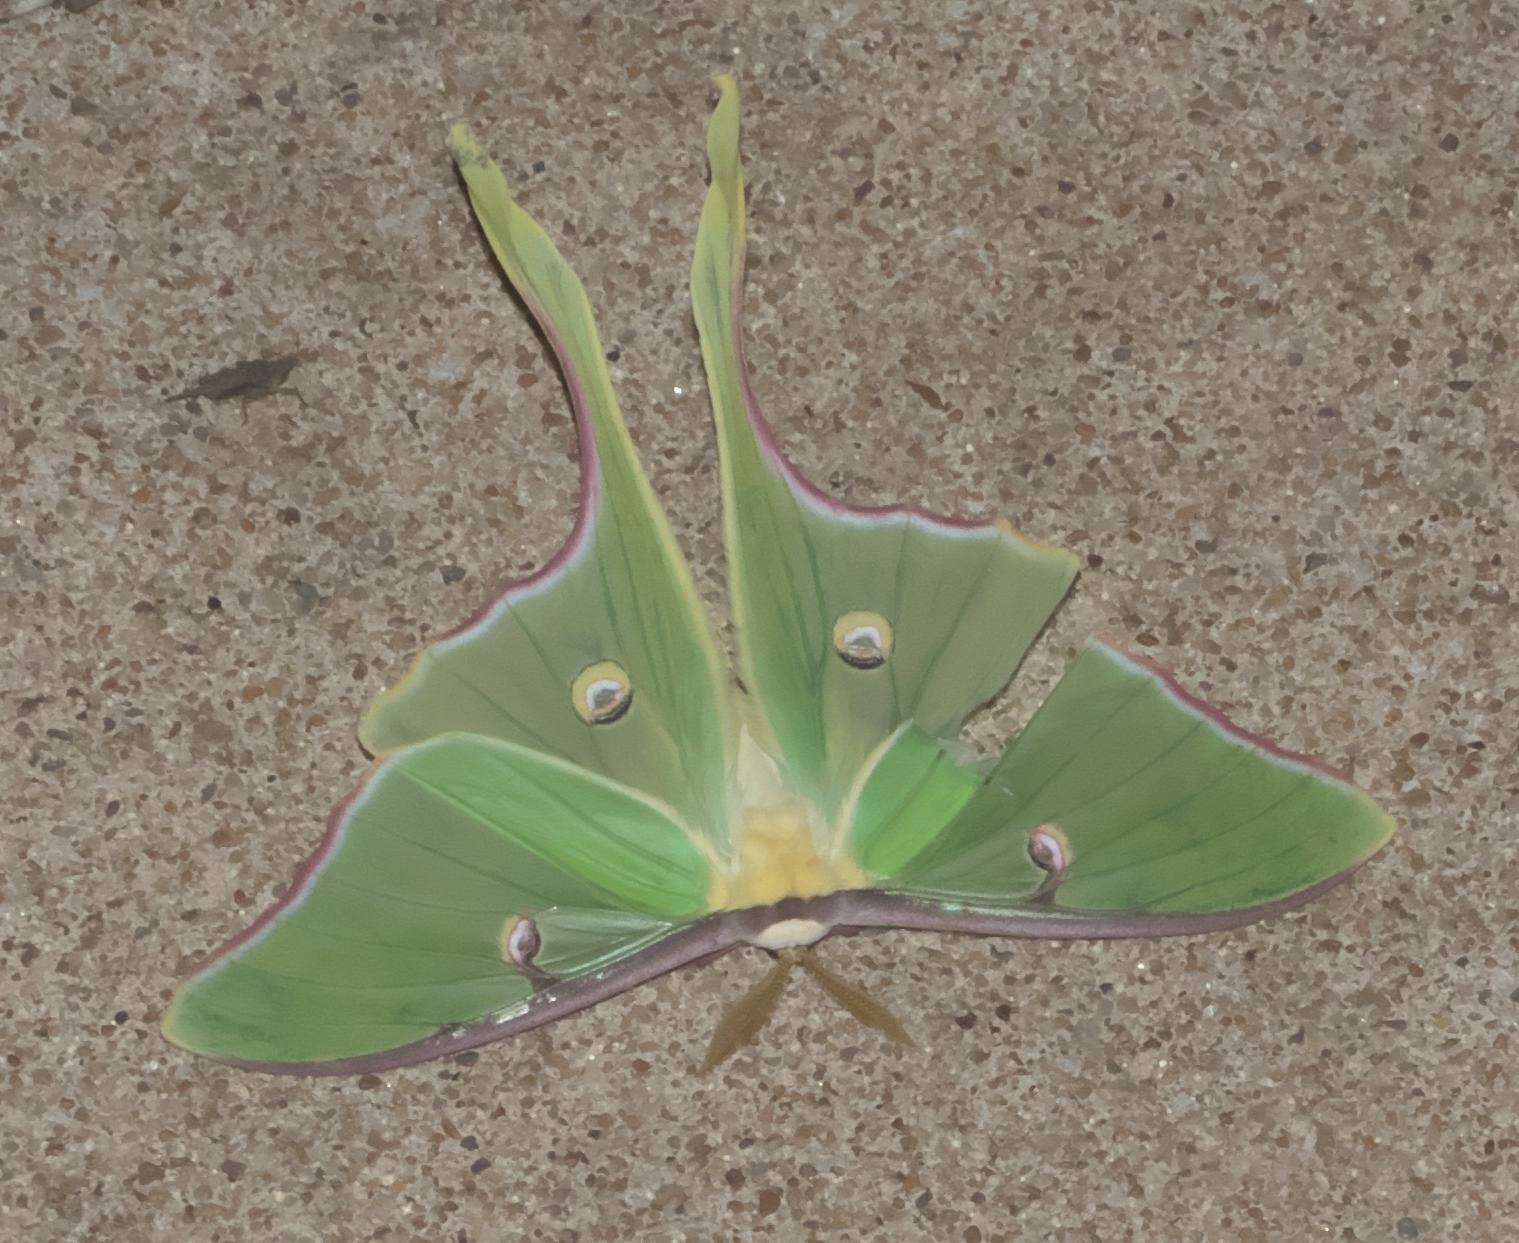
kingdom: Animalia
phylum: Arthropoda
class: Insecta
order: Lepidoptera
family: Saturniidae
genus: Actias
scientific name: Actias luna
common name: Luna moth
